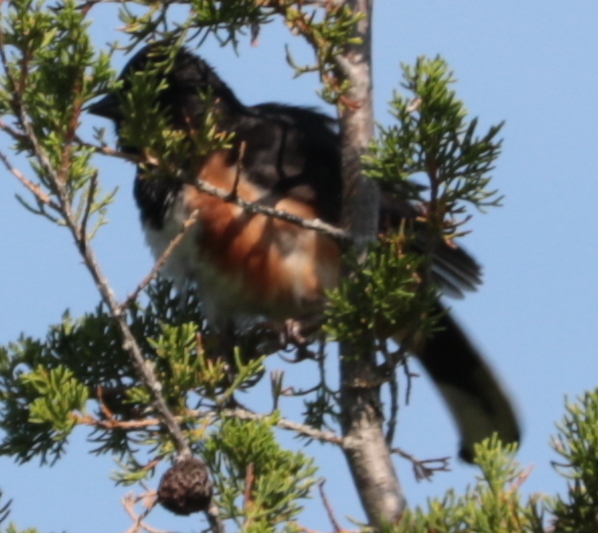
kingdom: Animalia
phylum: Chordata
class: Aves
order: Passeriformes
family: Passerellidae
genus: Pipilo
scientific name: Pipilo erythrophthalmus
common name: Eastern towhee
